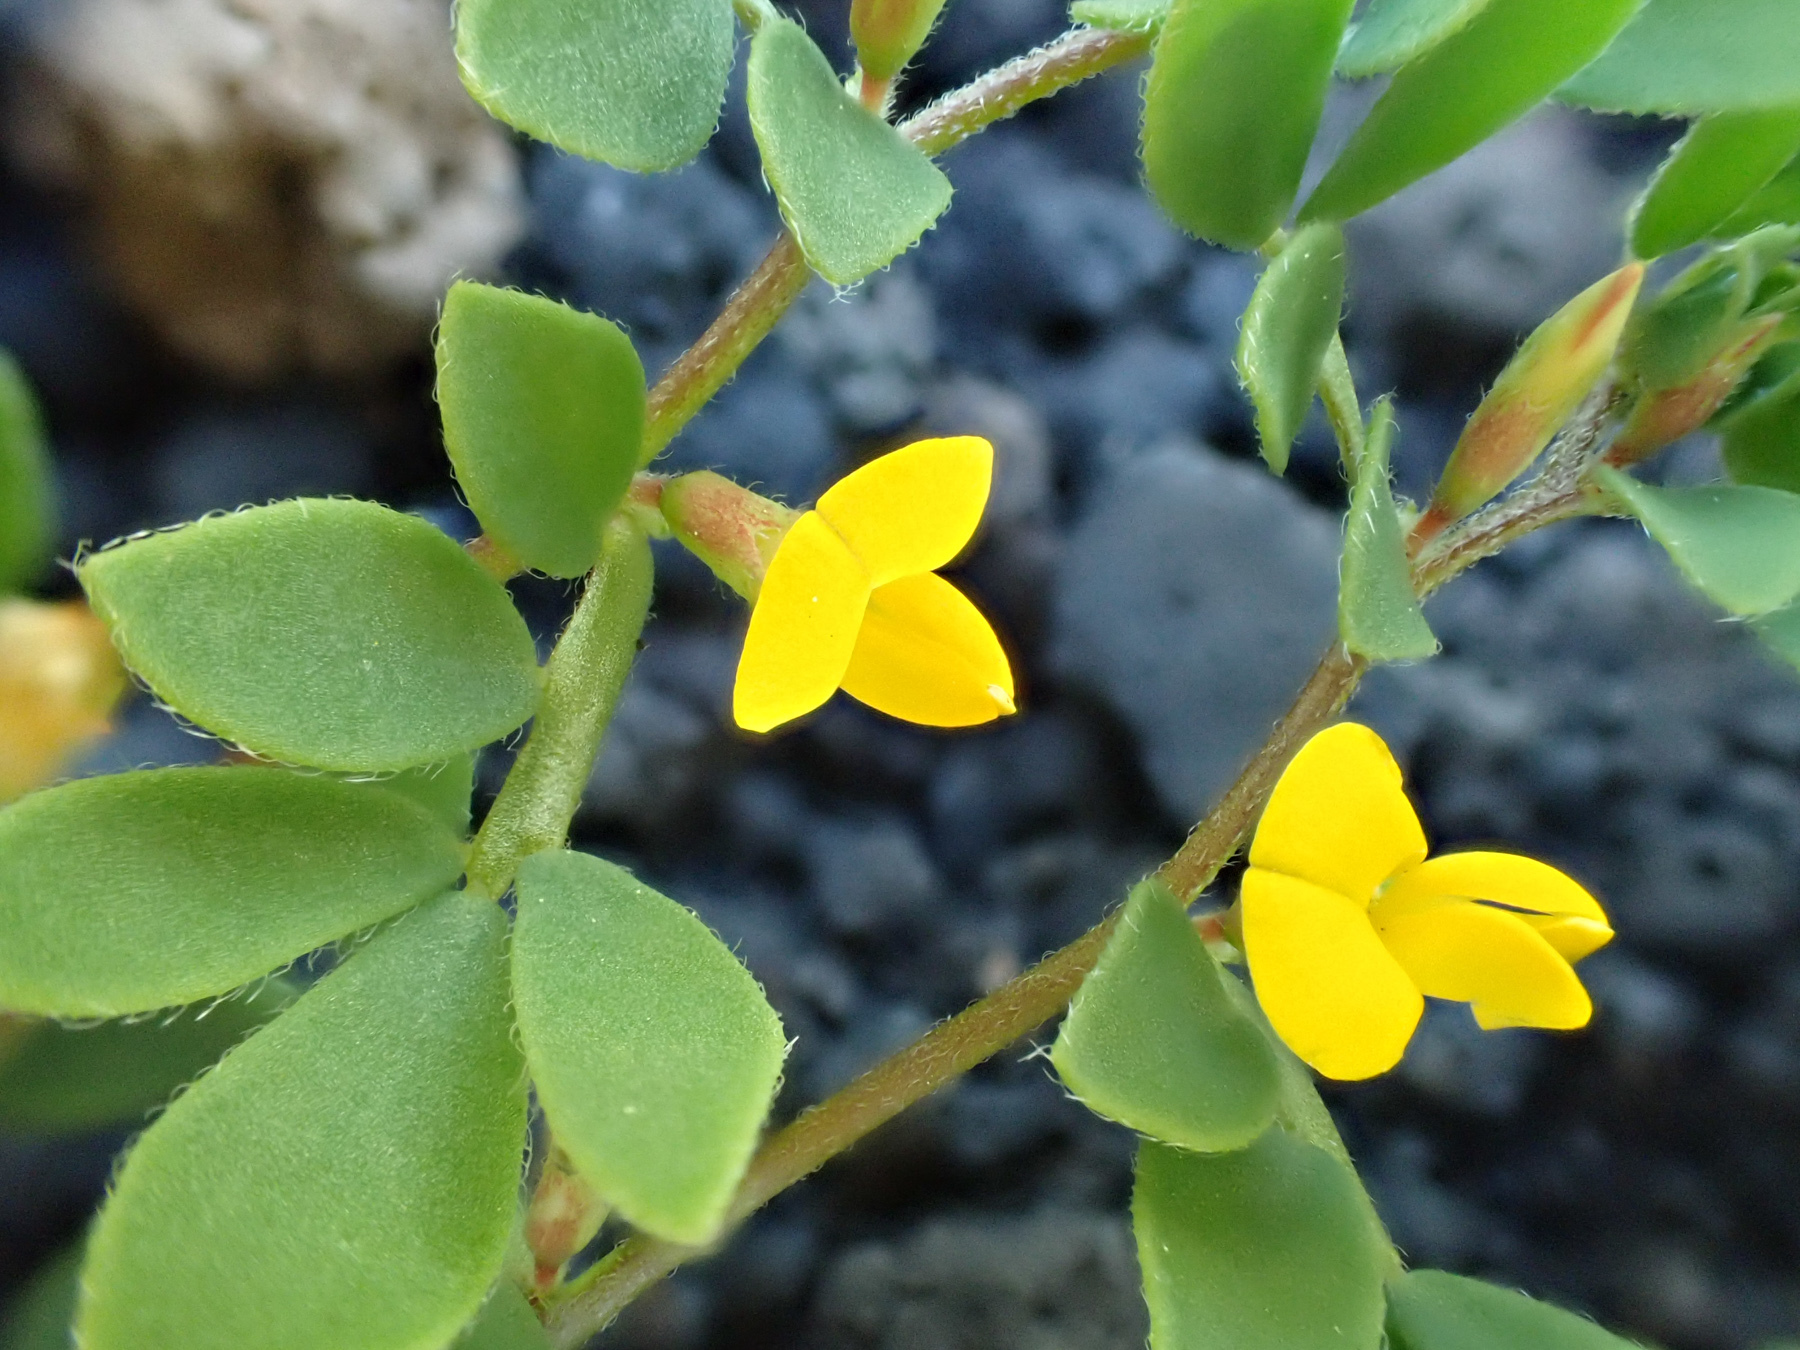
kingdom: Plantae
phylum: Tracheophyta
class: Magnoliopsida
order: Fabales
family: Fabaceae
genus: Acmispon
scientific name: Acmispon wrangelianus
